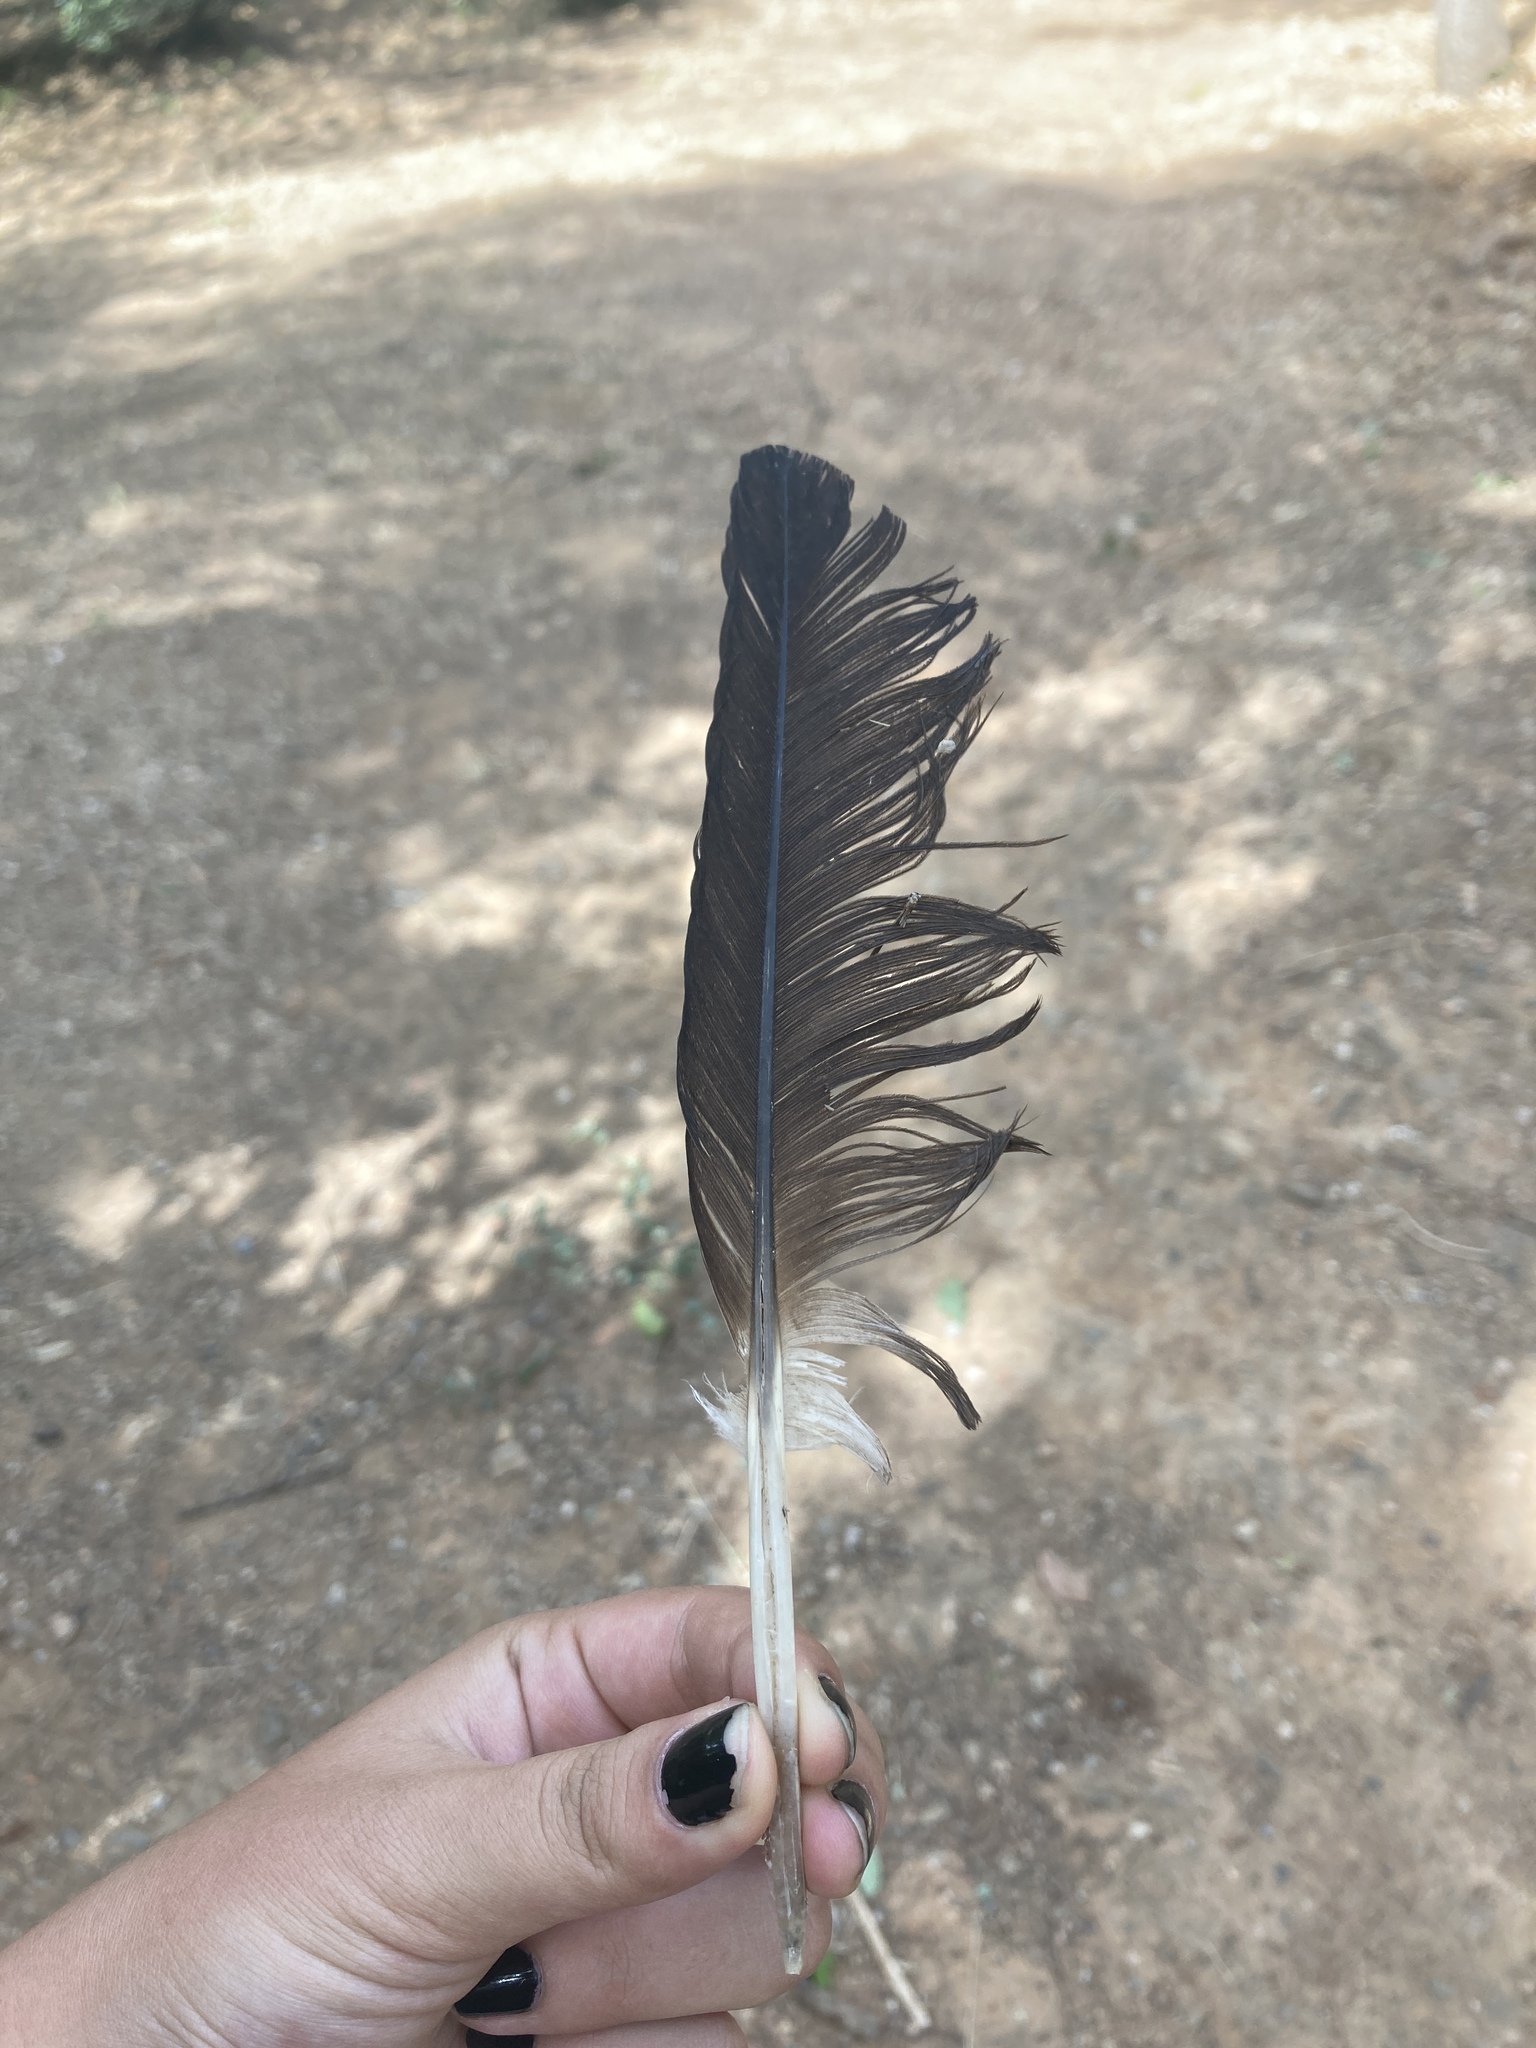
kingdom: Animalia
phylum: Chordata
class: Aves
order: Anseriformes
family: Anatidae
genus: Tadorna
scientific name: Tadorna ferruginea
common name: Ruddy shelduck
